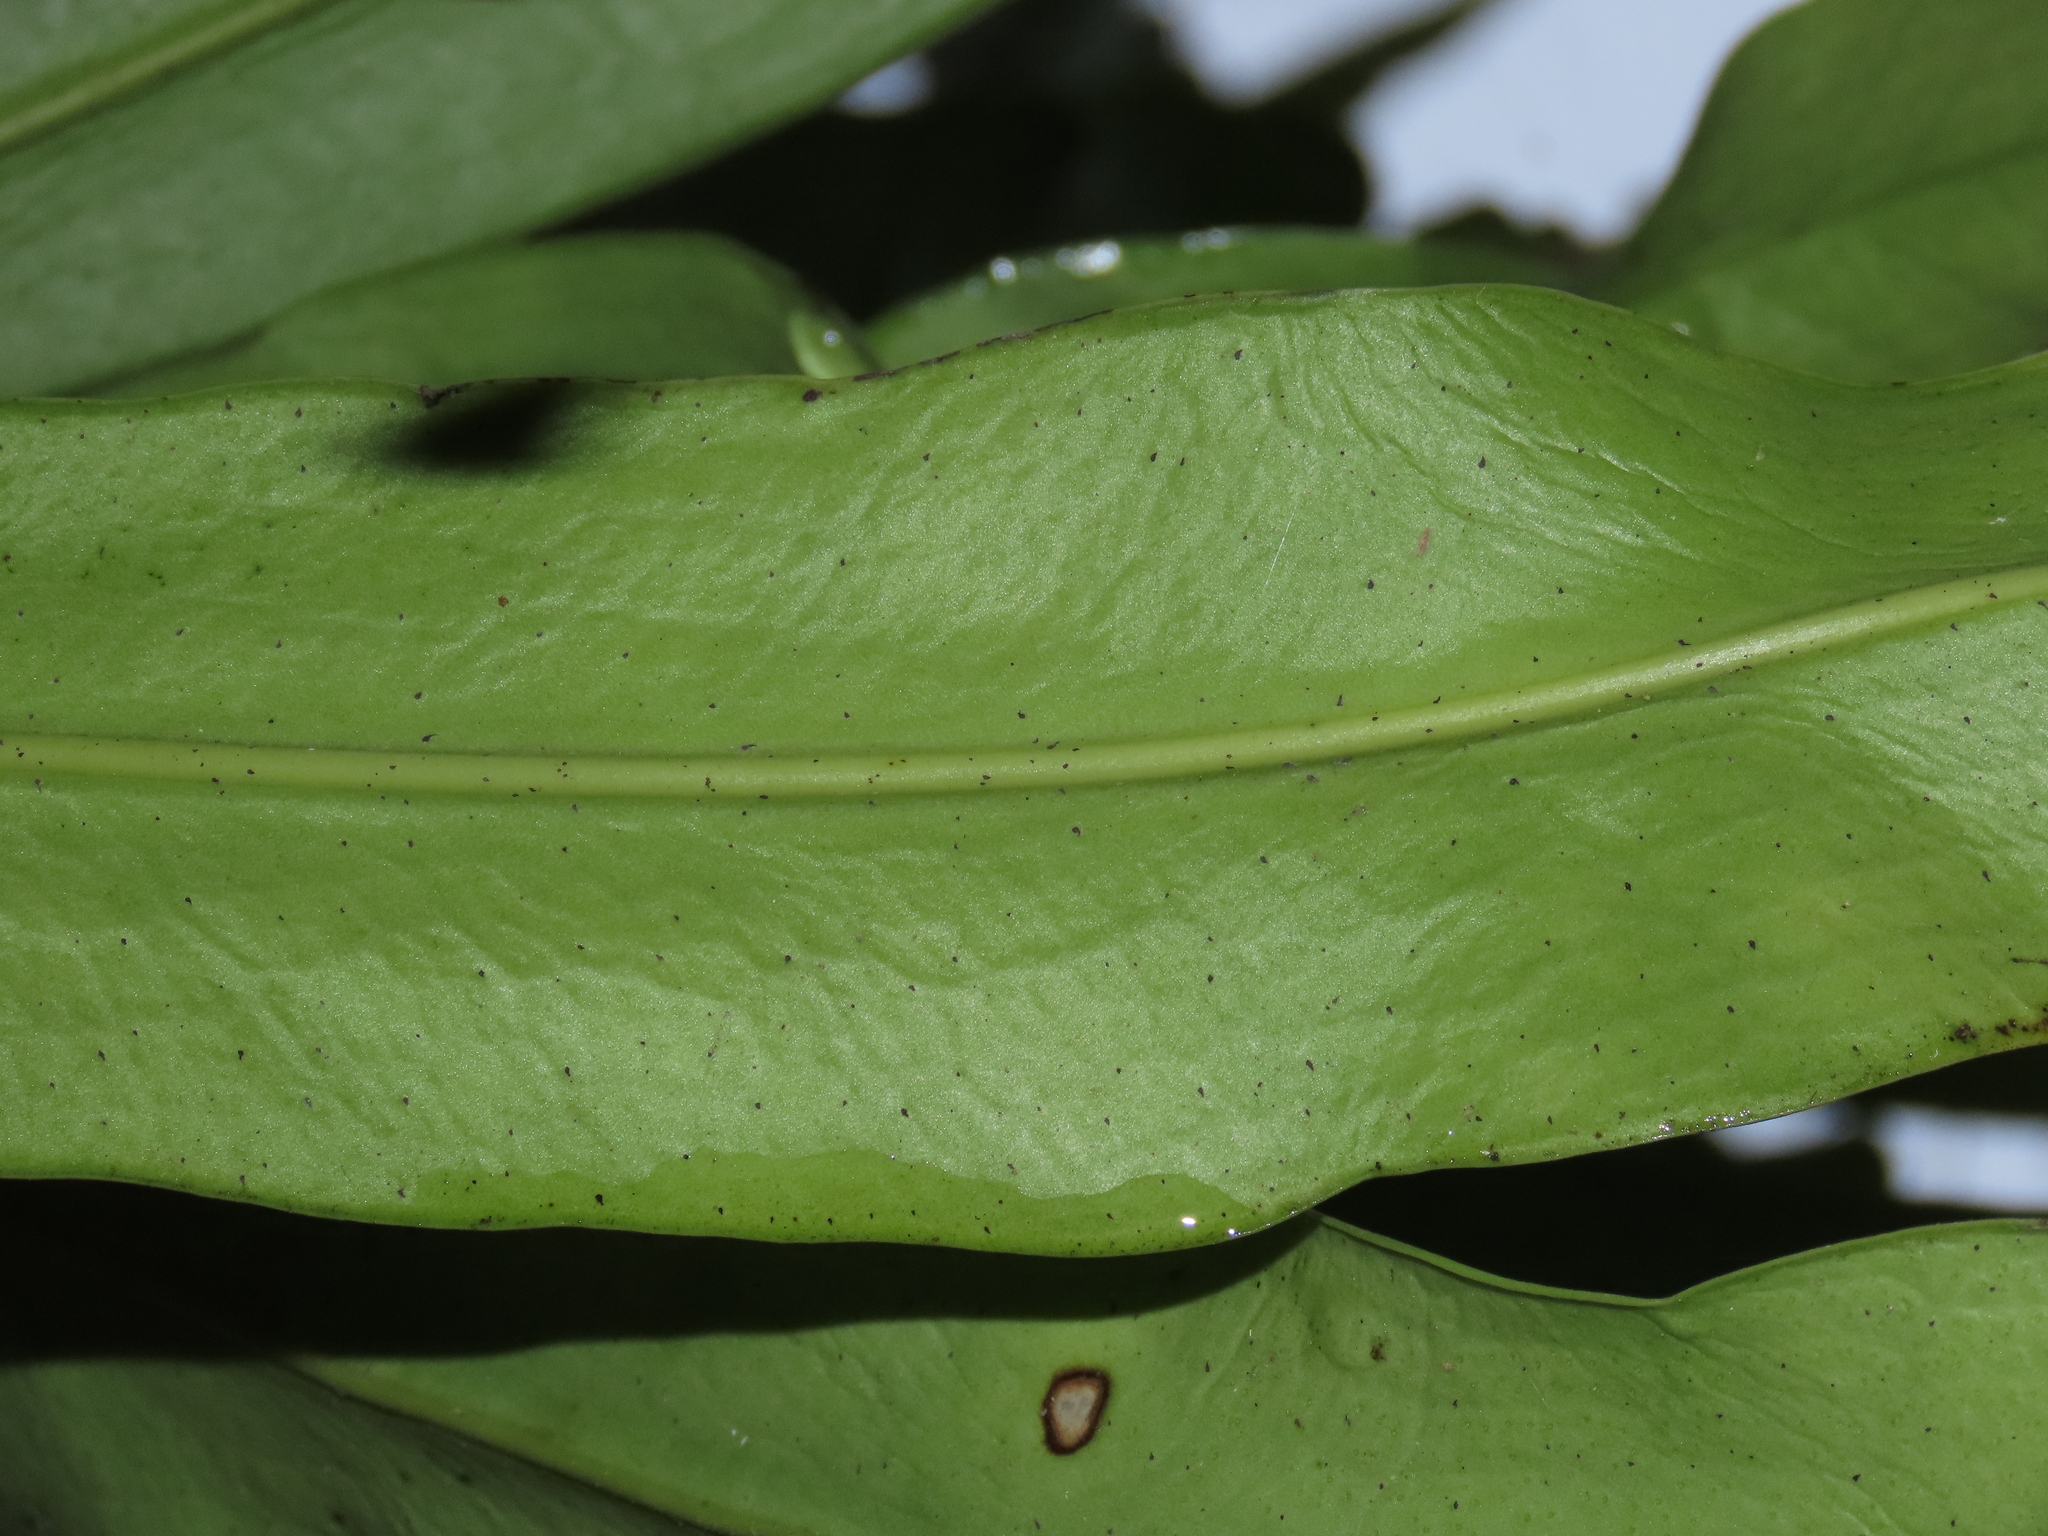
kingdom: Plantae
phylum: Tracheophyta
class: Polypodiopsida
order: Polypodiales
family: Polypodiaceae
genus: Microsorum
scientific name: Microsorum punctatum
